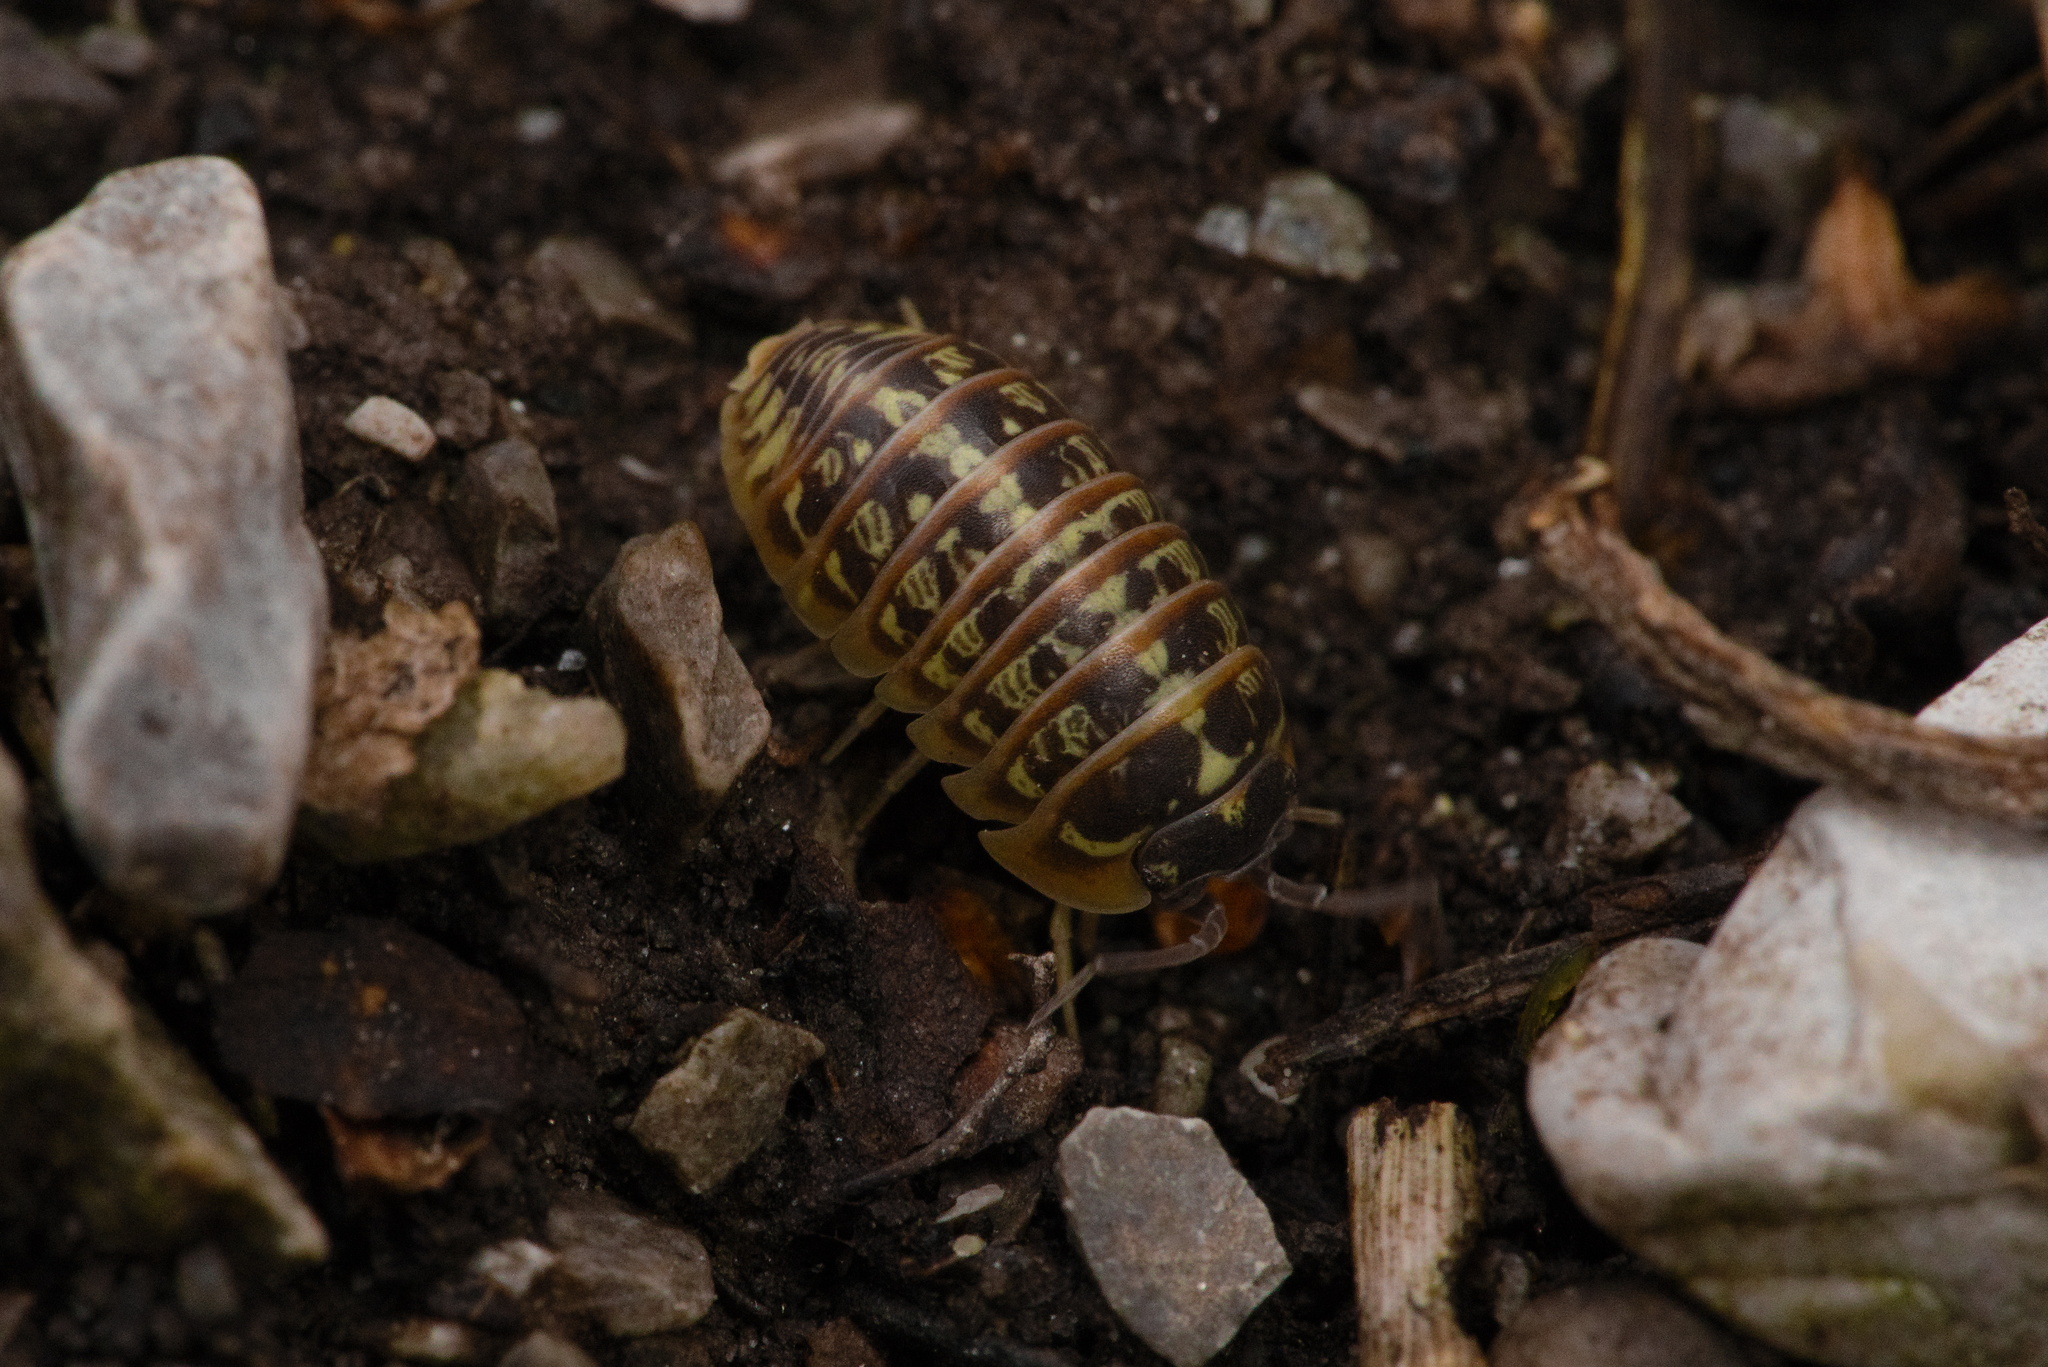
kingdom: Animalia
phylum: Arthropoda
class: Malacostraca
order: Isopoda
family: Armadillidiidae
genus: Armadillidium
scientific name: Armadillidium versicolor
